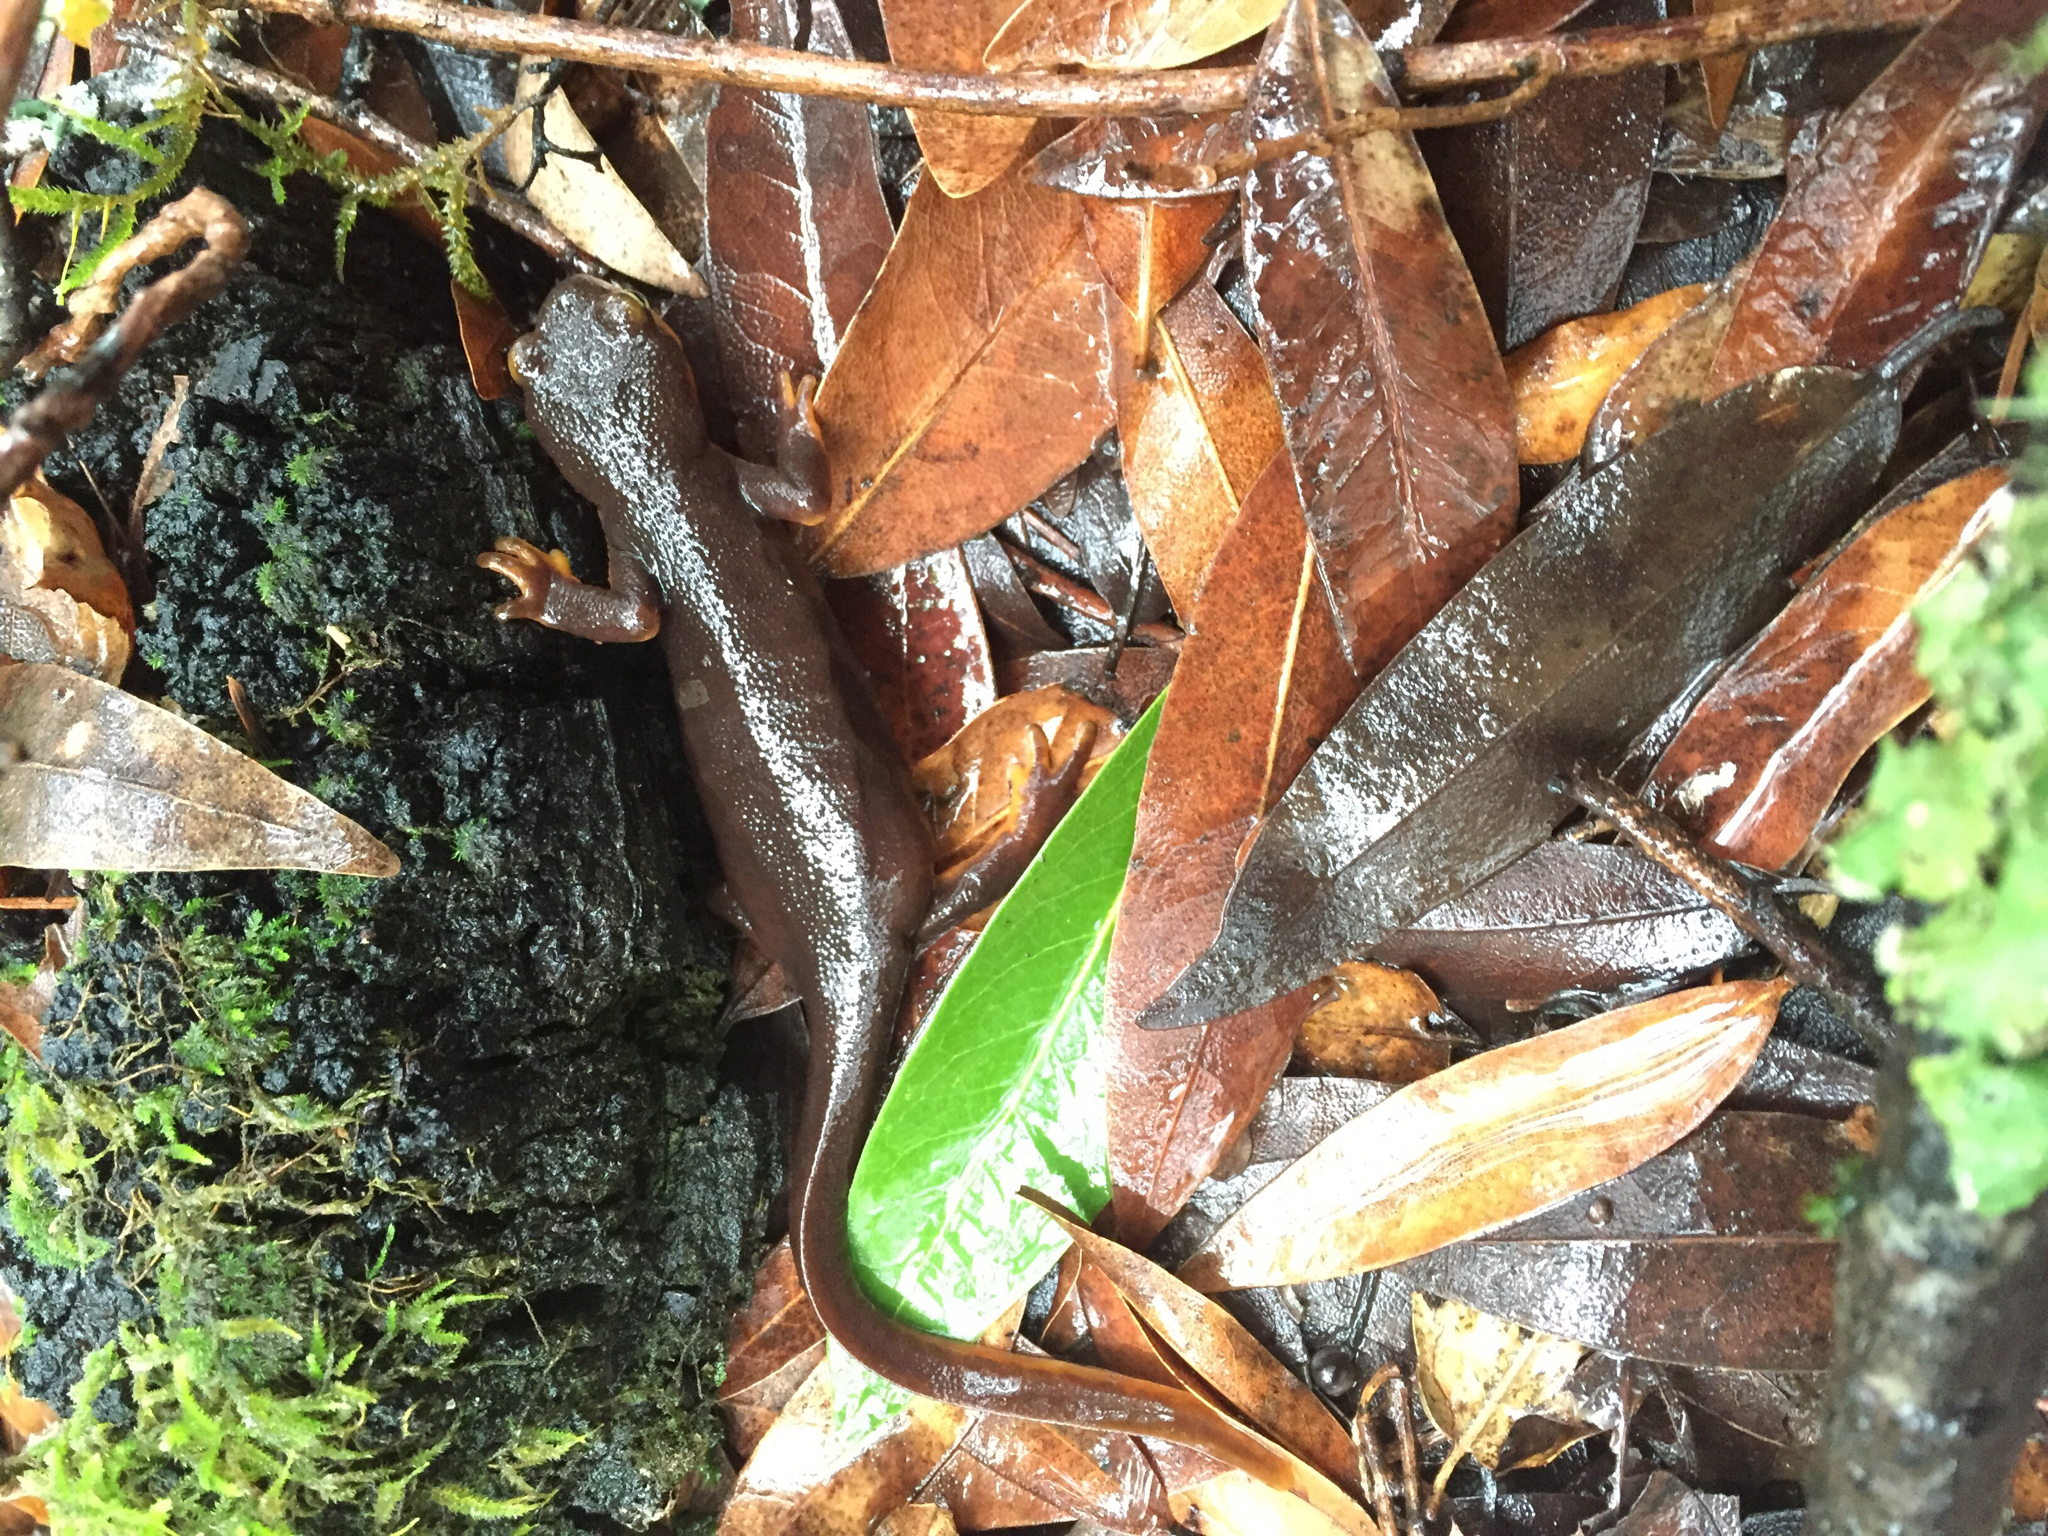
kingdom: Animalia
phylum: Chordata
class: Amphibia
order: Caudata
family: Salamandridae
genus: Taricha
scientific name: Taricha torosa
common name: California newt
